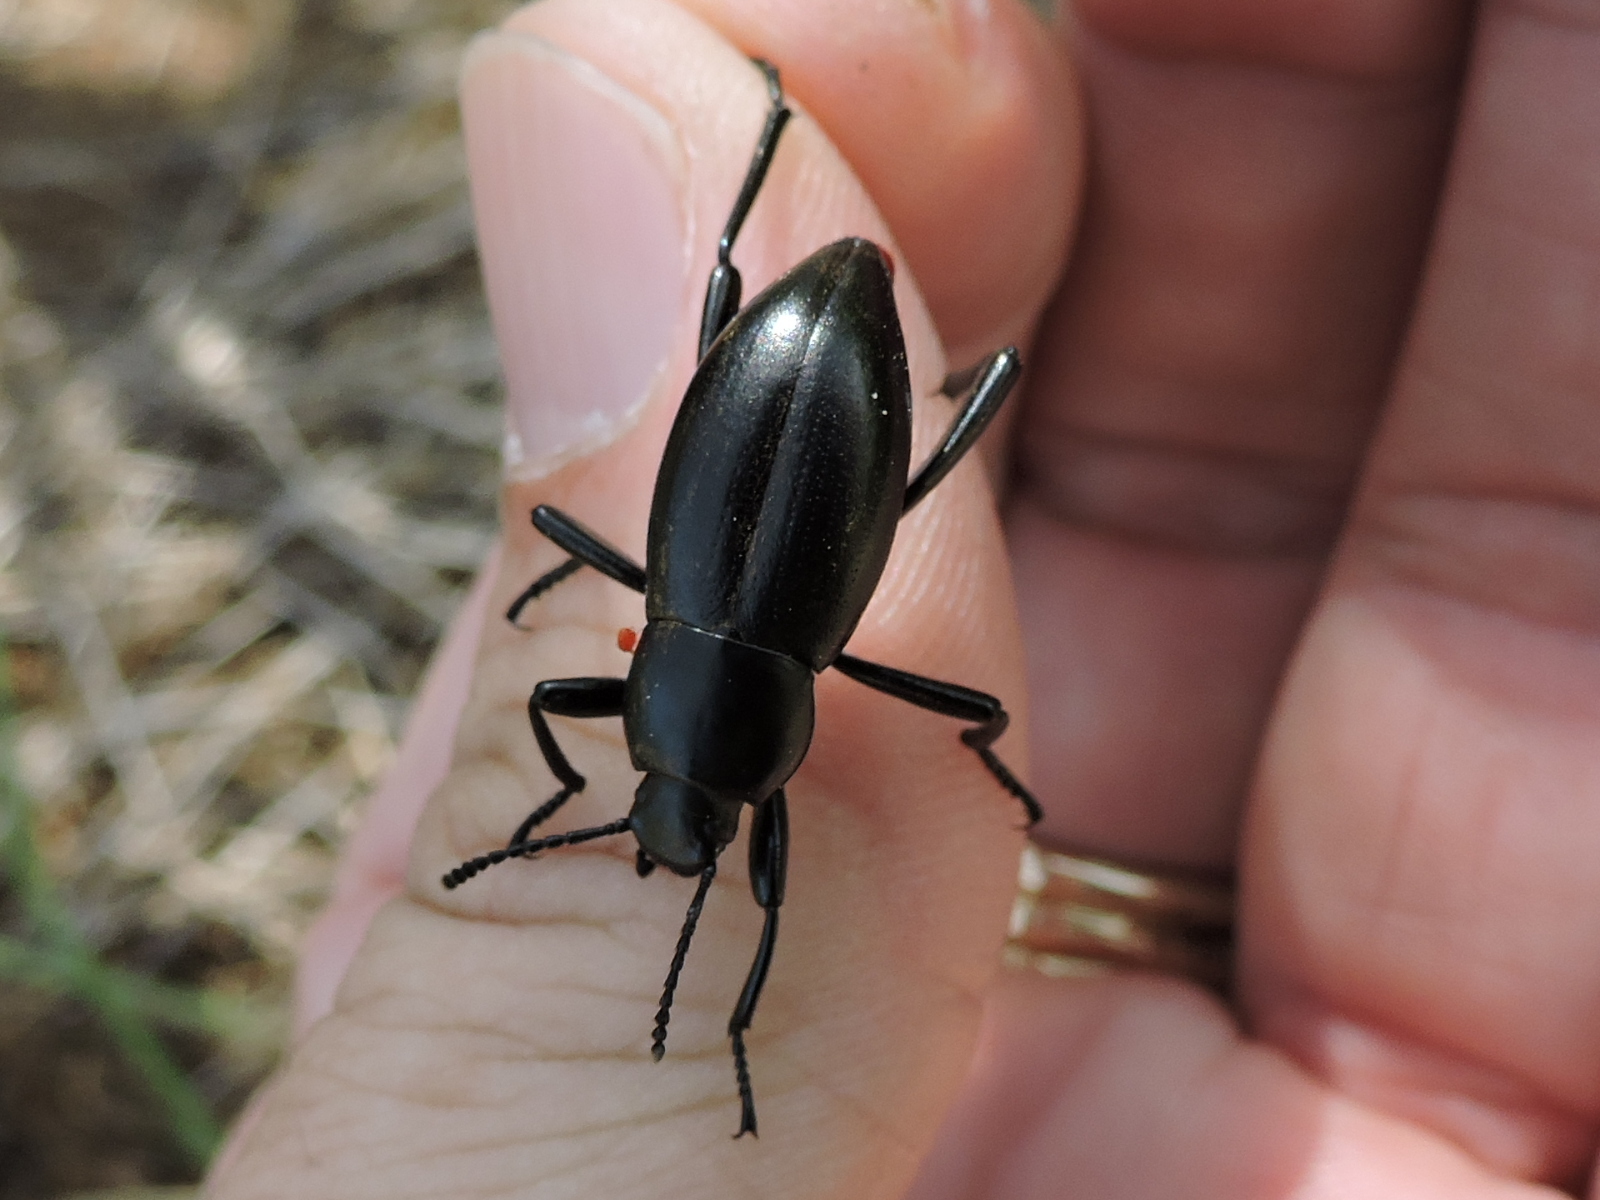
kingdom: Animalia
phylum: Arthropoda
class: Insecta
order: Coleoptera
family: Tenebrionidae
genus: Eleodes
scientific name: Eleodes debilis
